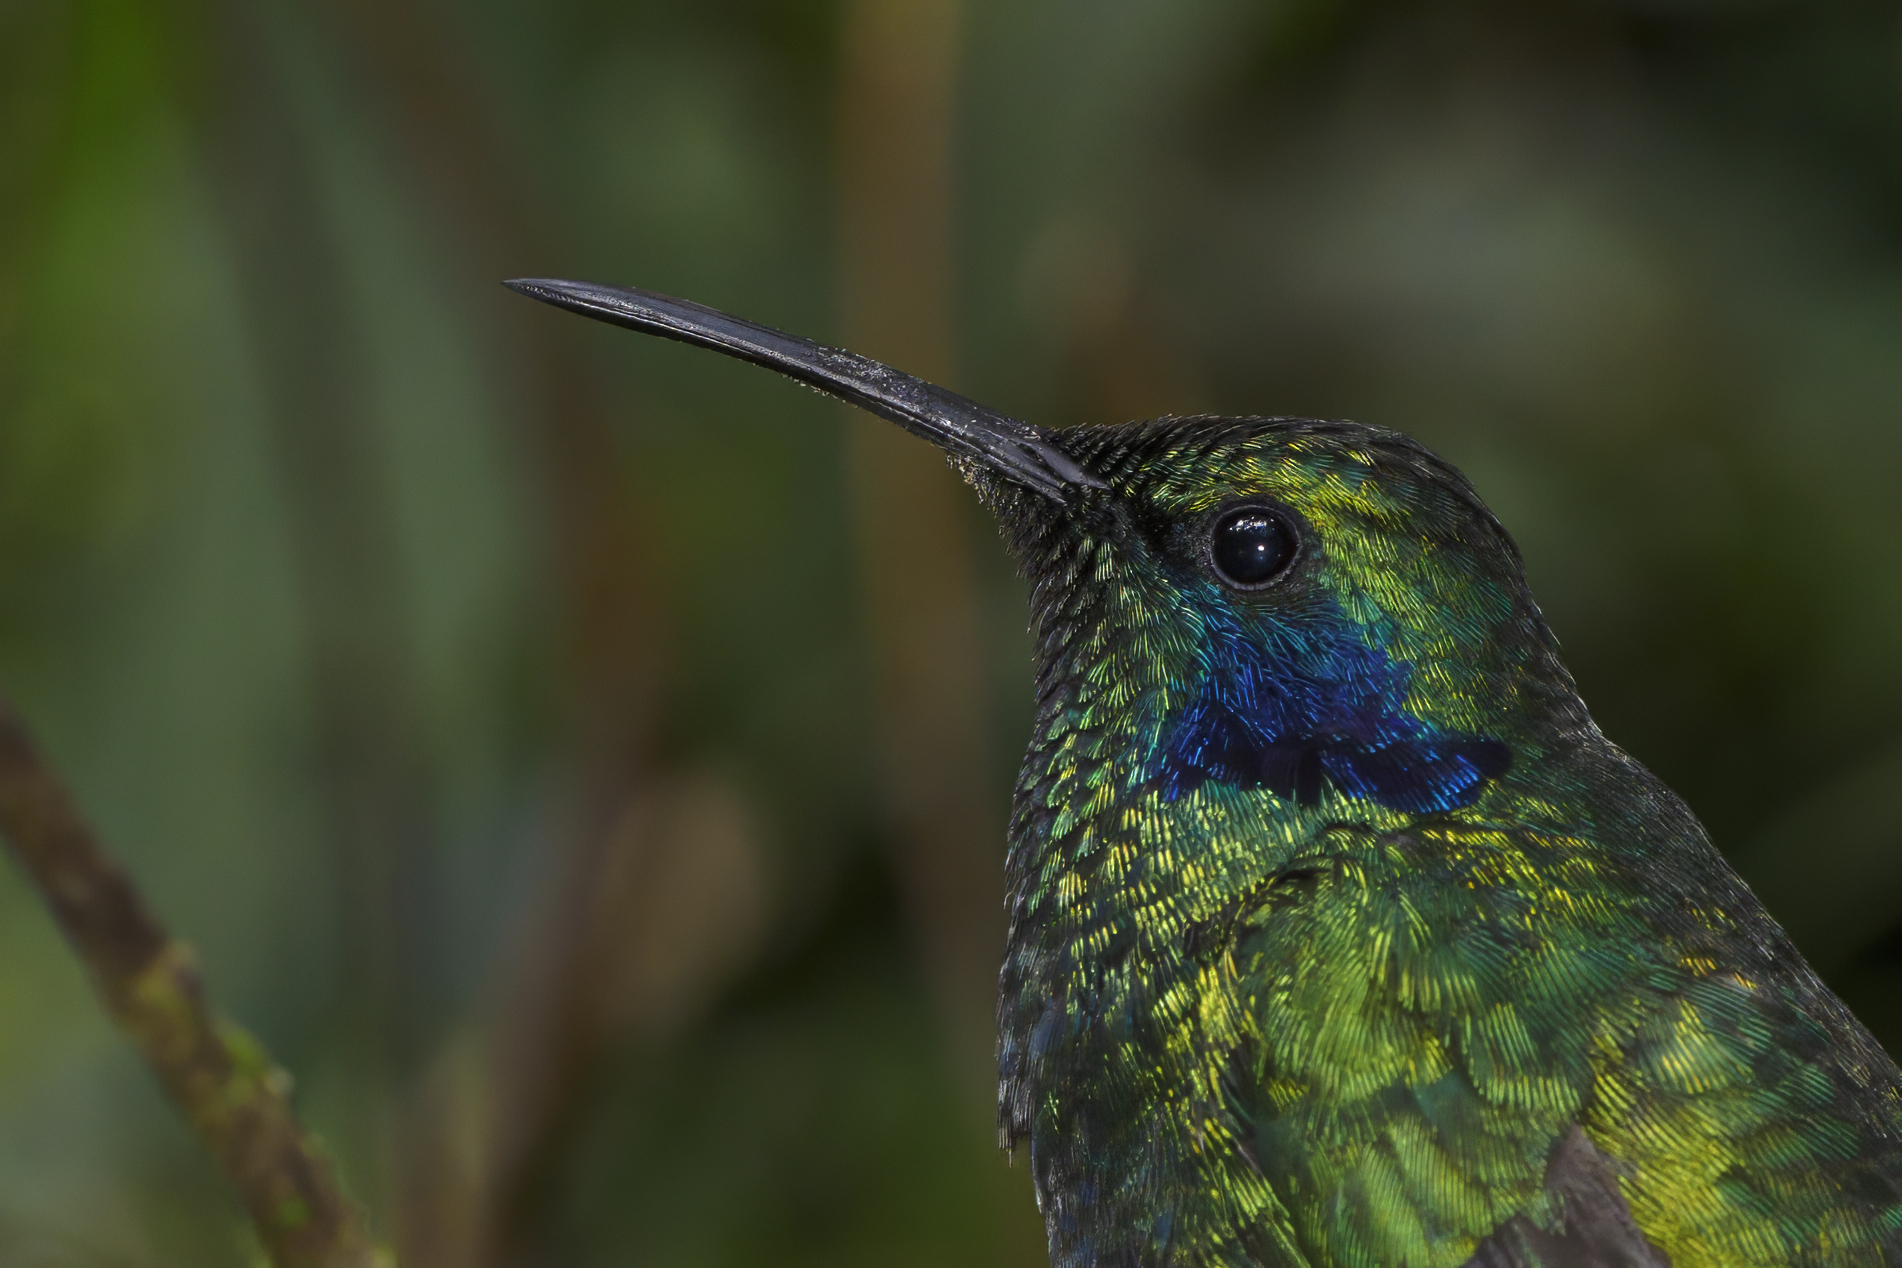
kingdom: Animalia
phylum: Chordata
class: Aves
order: Apodiformes
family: Trochilidae
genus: Colibri
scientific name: Colibri cyanotus
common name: Lesser violetear
